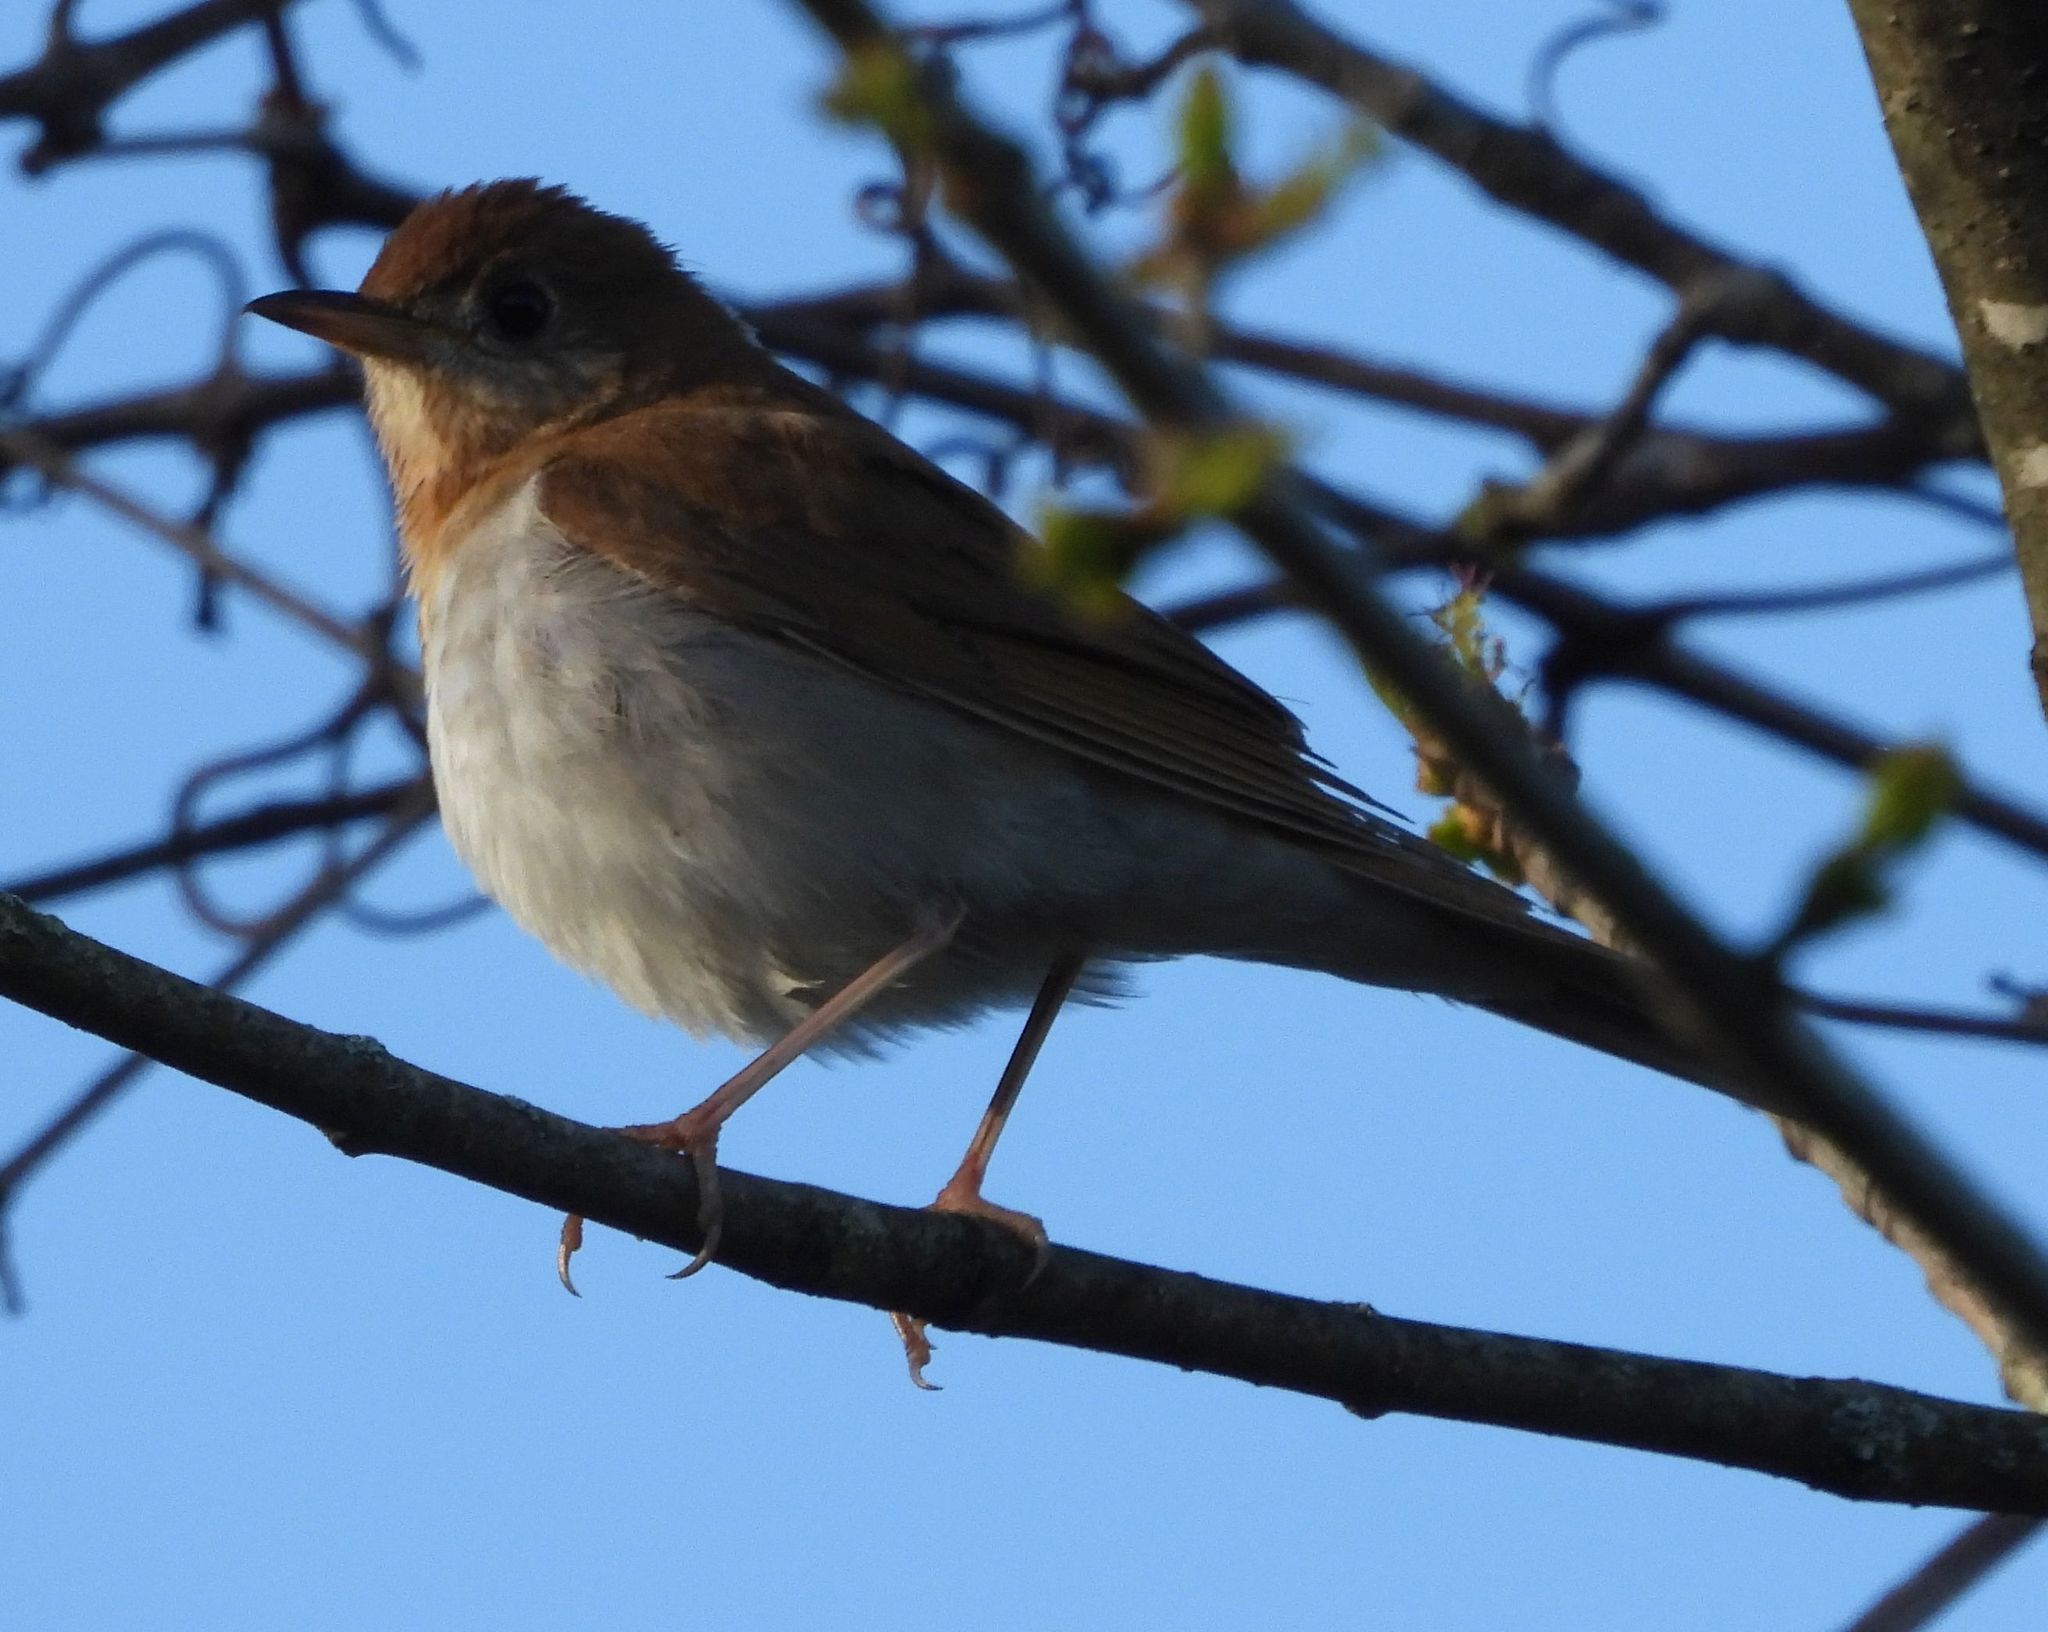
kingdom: Animalia
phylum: Chordata
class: Aves
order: Passeriformes
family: Turdidae
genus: Catharus
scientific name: Catharus fuscescens
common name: Veery
